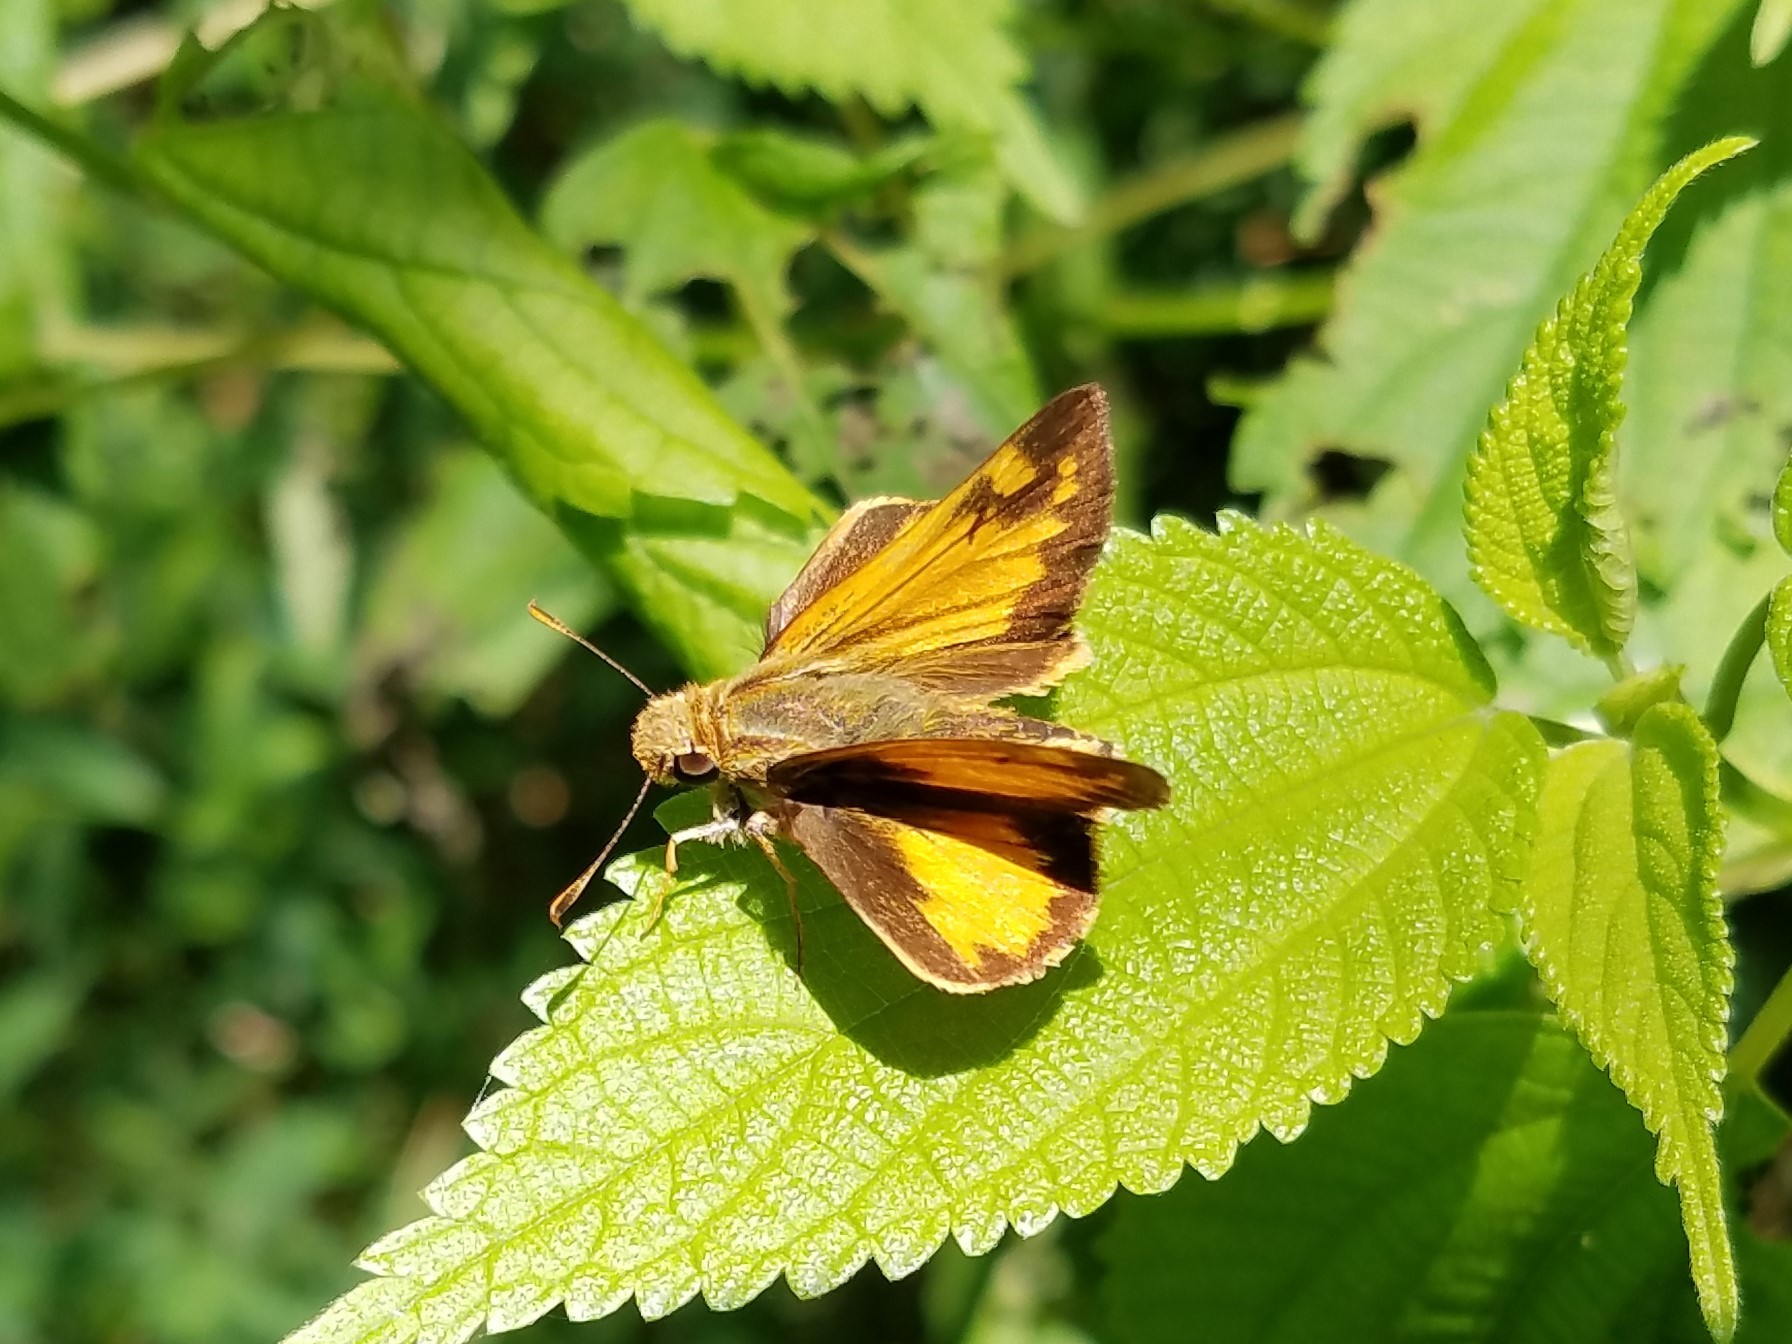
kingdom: Animalia
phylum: Arthropoda
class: Insecta
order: Lepidoptera
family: Hesperiidae
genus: Lon
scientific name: Lon zabulon
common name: Zabulon skipper
